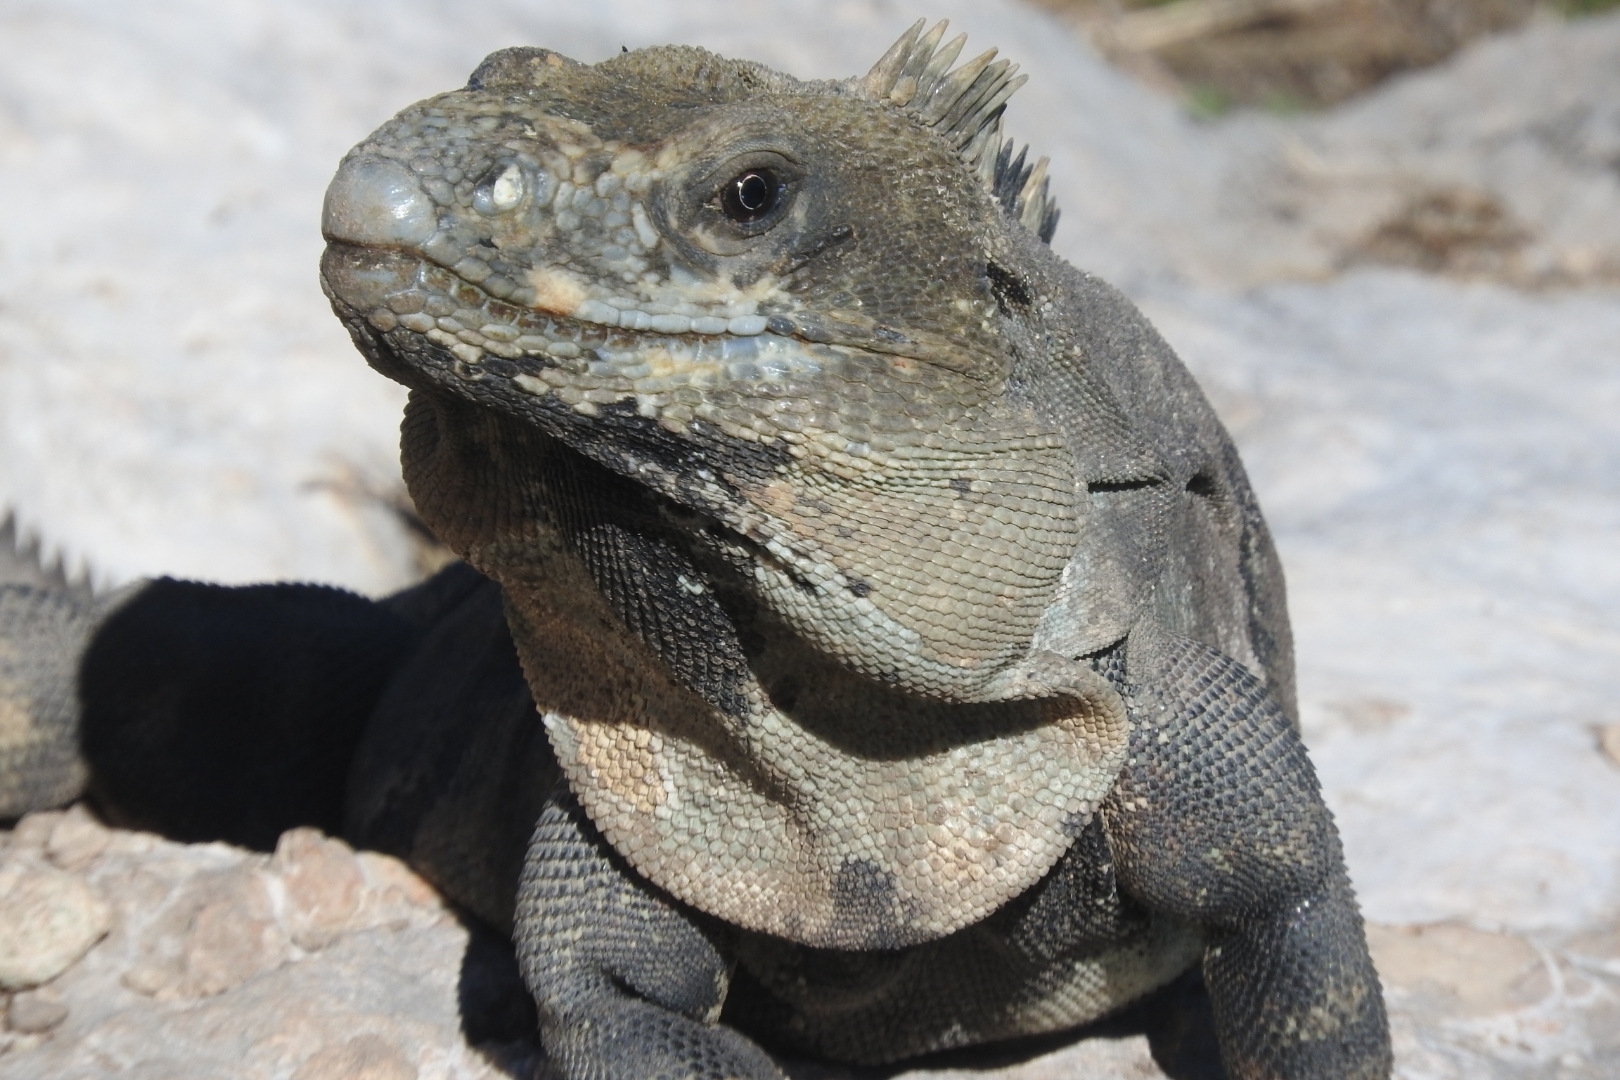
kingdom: Animalia
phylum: Chordata
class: Squamata
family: Iguanidae
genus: Ctenosaura
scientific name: Ctenosaura similis
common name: Black spiny-tailed iguana
